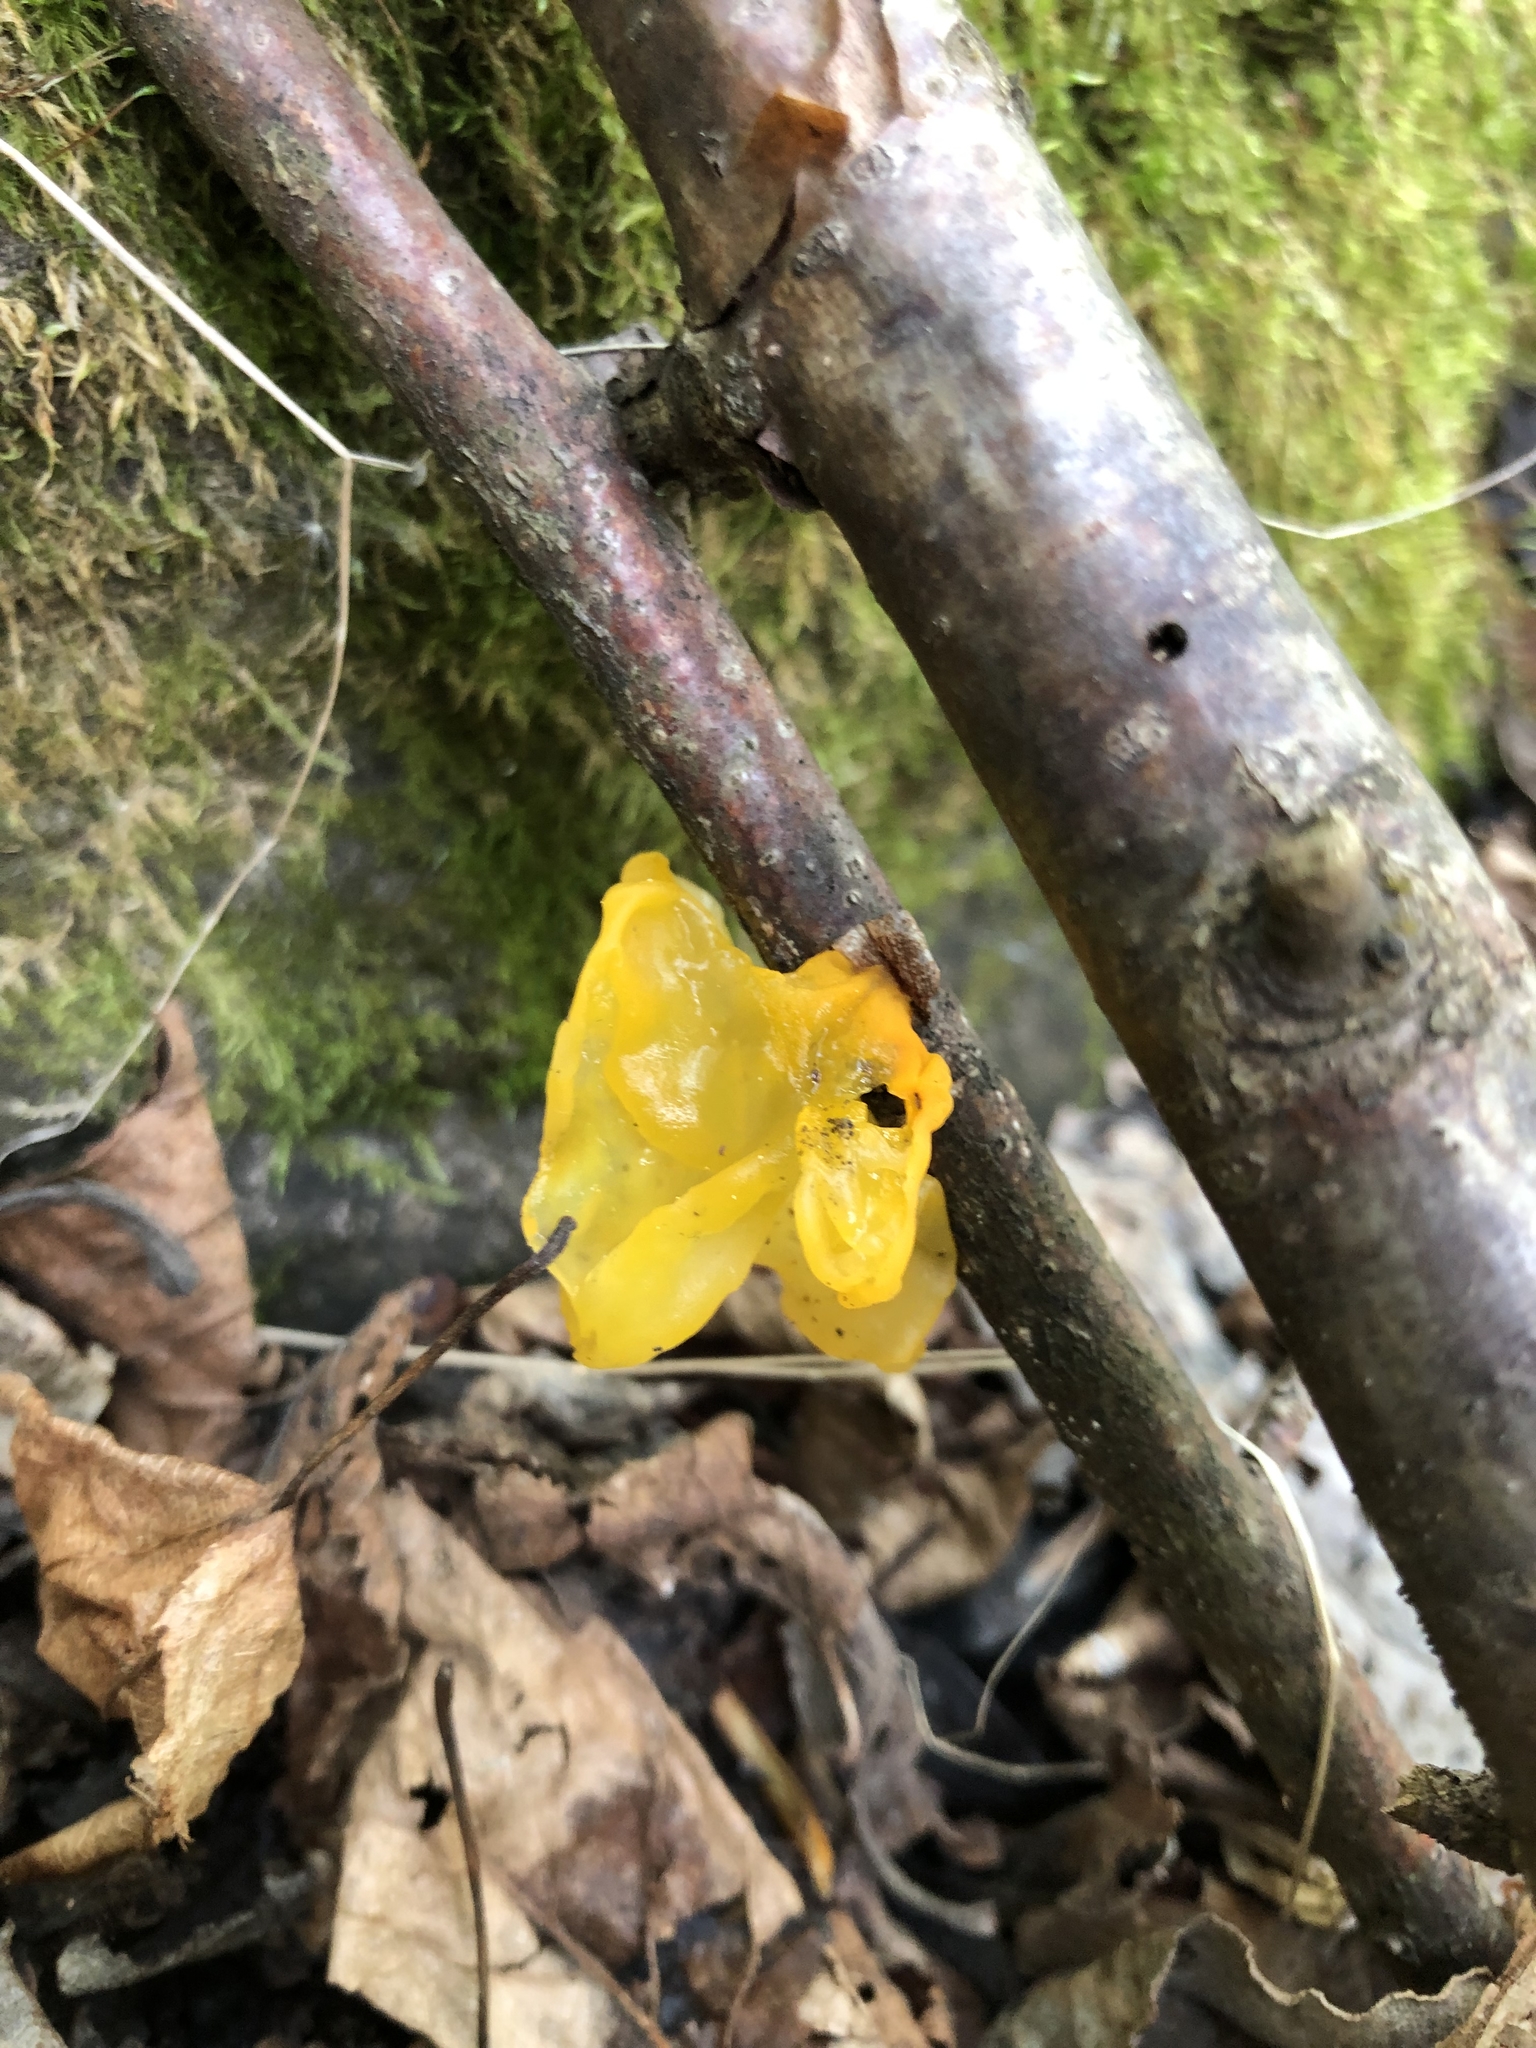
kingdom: Fungi
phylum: Basidiomycota
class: Tremellomycetes
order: Tremellales
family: Tremellaceae
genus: Tremella
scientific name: Tremella mesenterica
